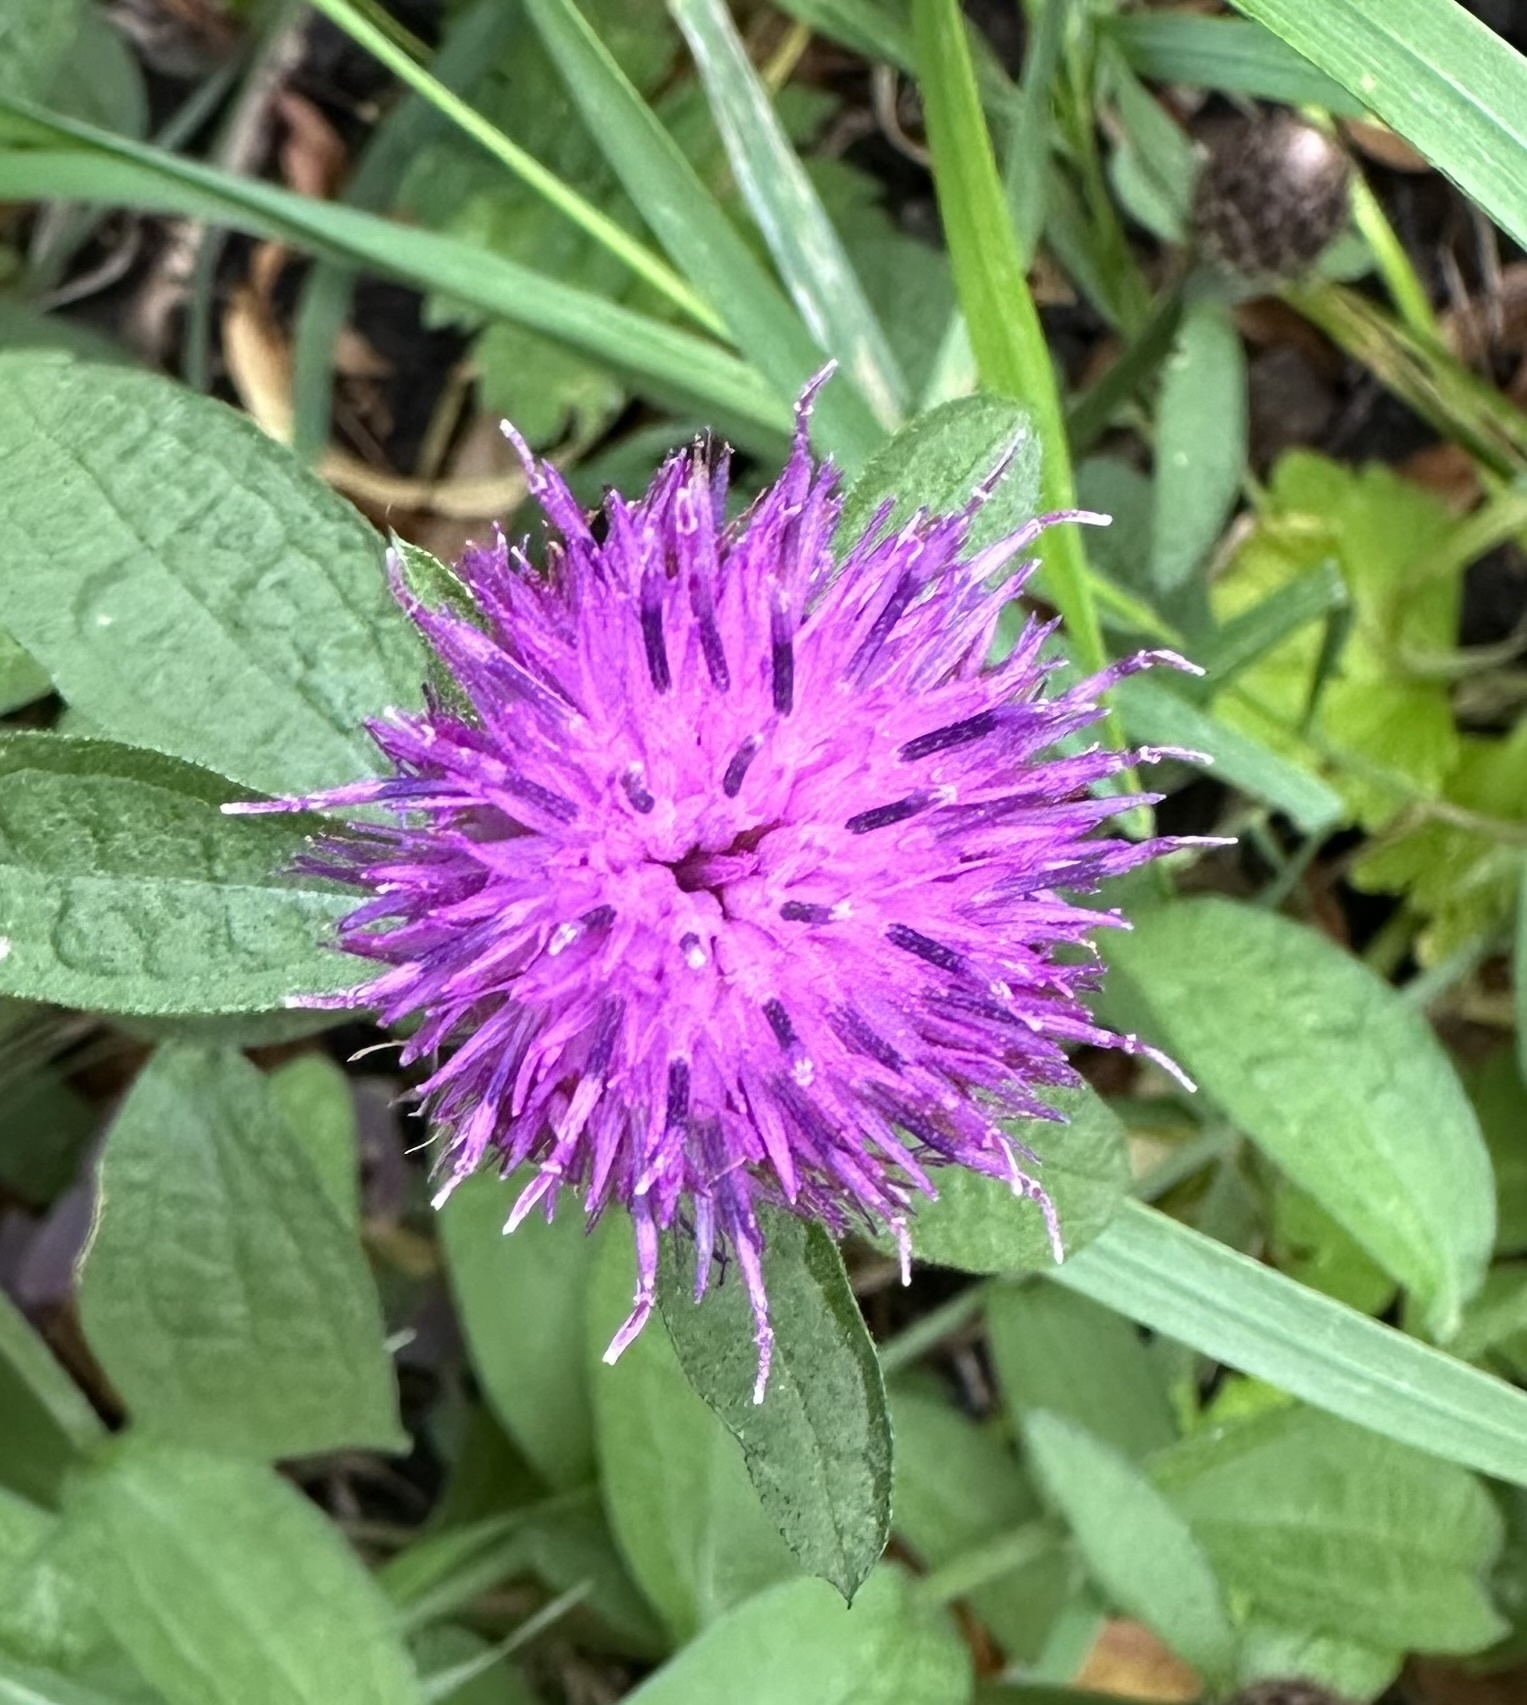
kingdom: Plantae
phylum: Tracheophyta
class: Magnoliopsida
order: Asterales
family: Asteraceae
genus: Centaurea
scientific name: Centaurea nigra
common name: Lesser knapweed
